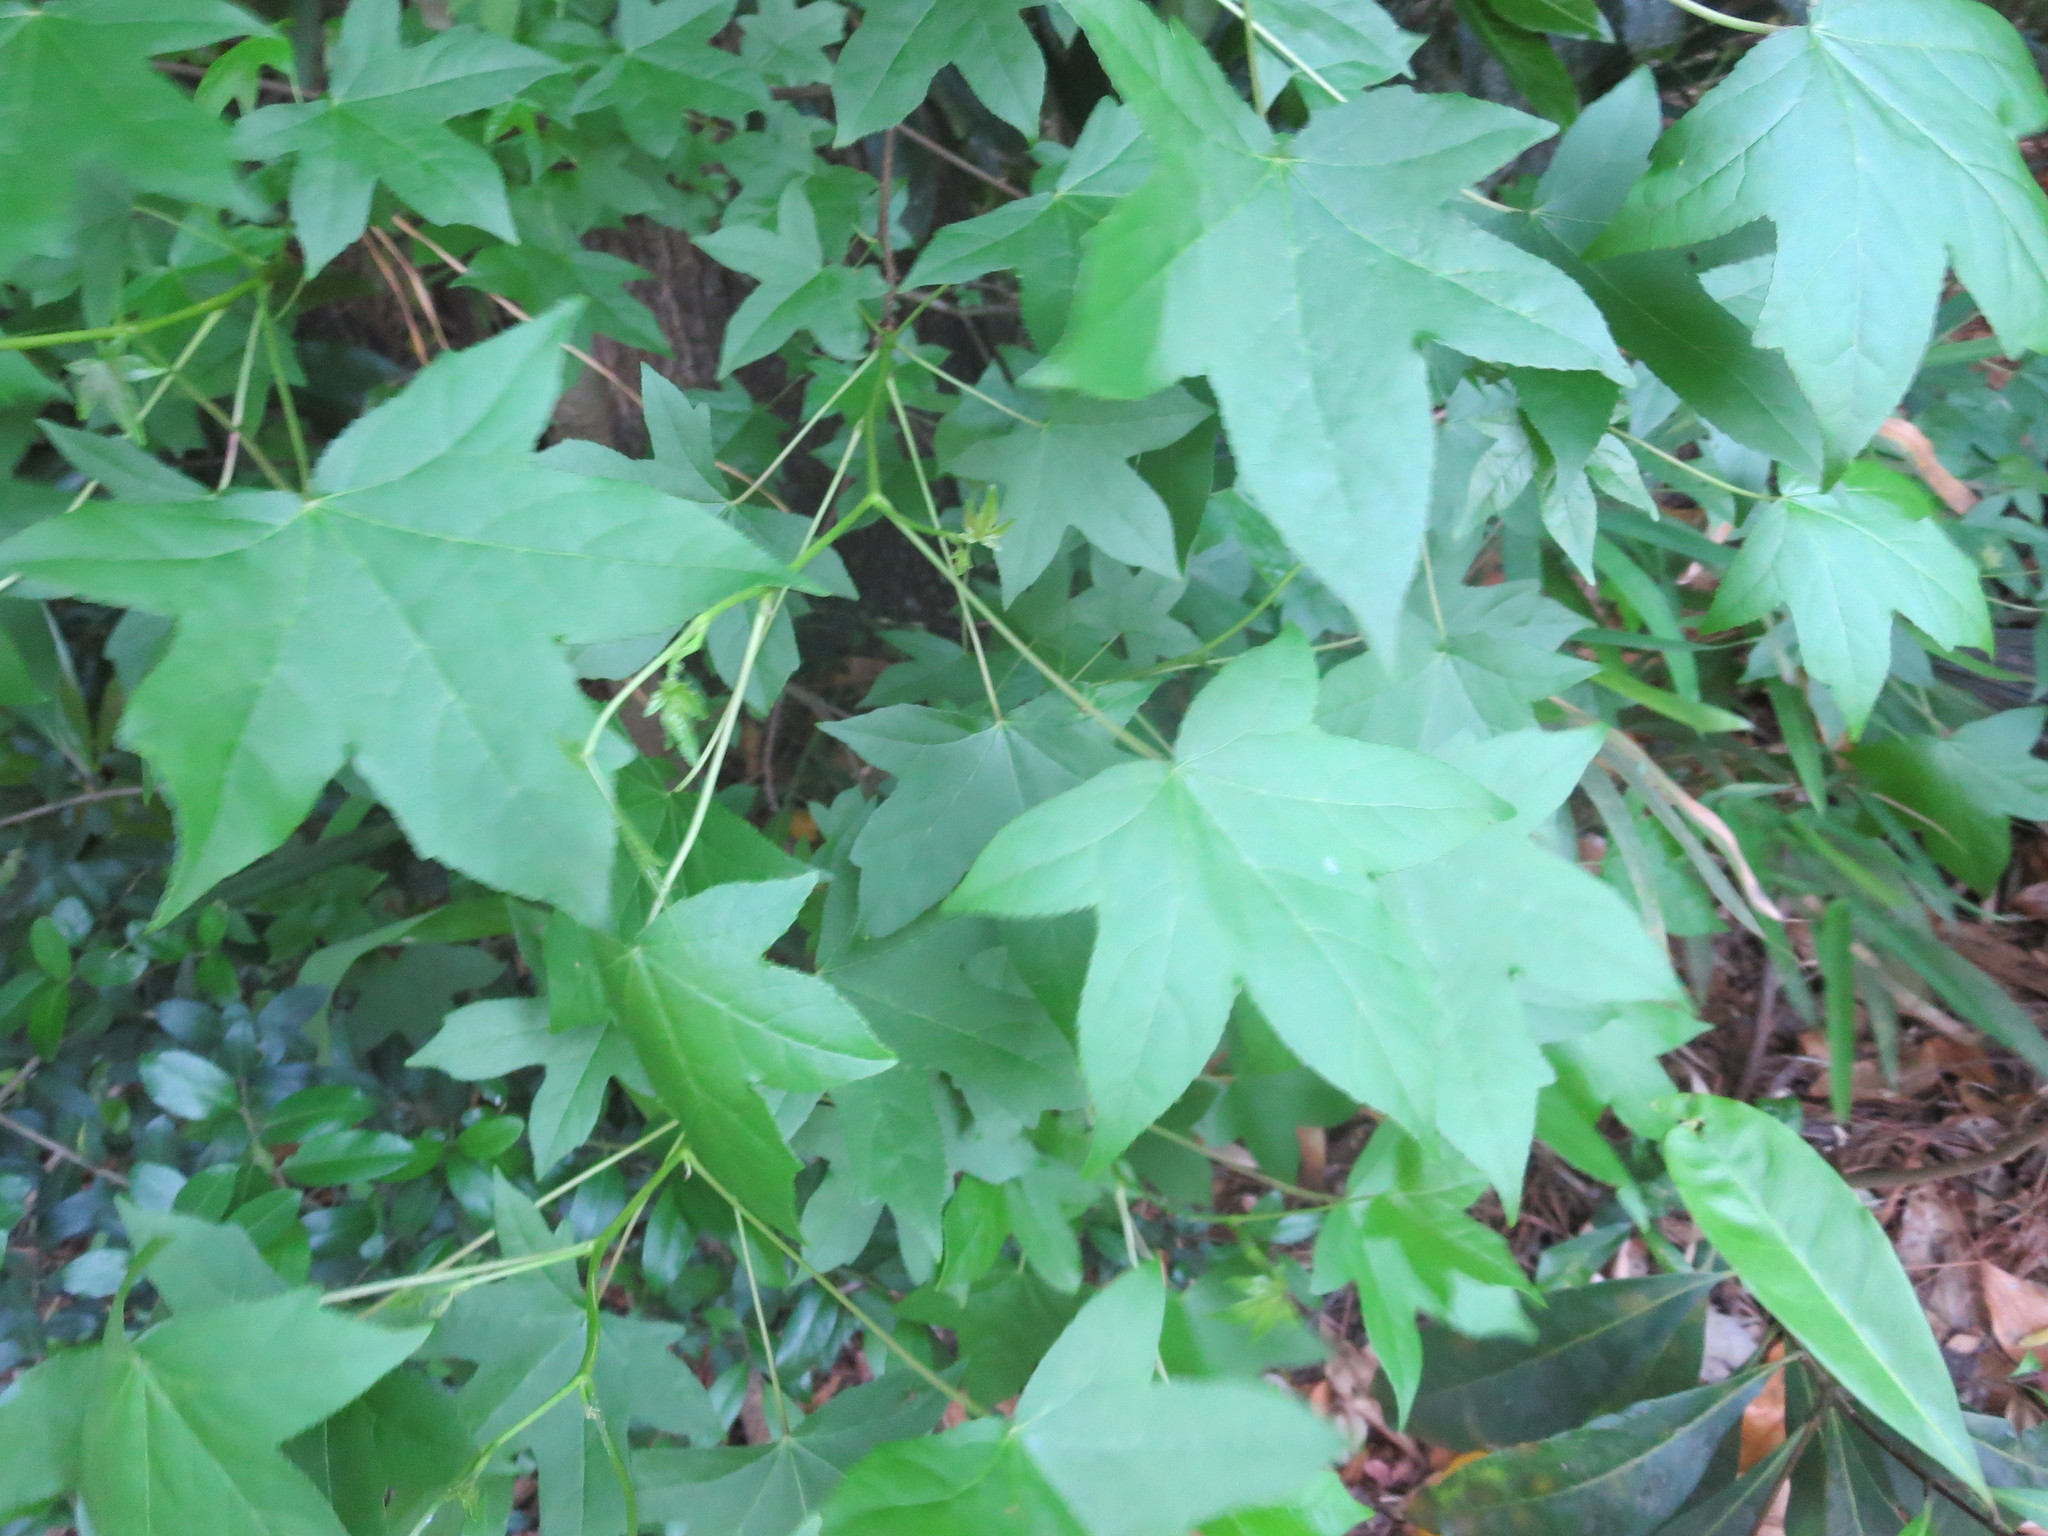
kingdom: Plantae
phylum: Tracheophyta
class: Magnoliopsida
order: Saxifragales
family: Altingiaceae
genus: Liquidambar
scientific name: Liquidambar styraciflua
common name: Sweet gum
